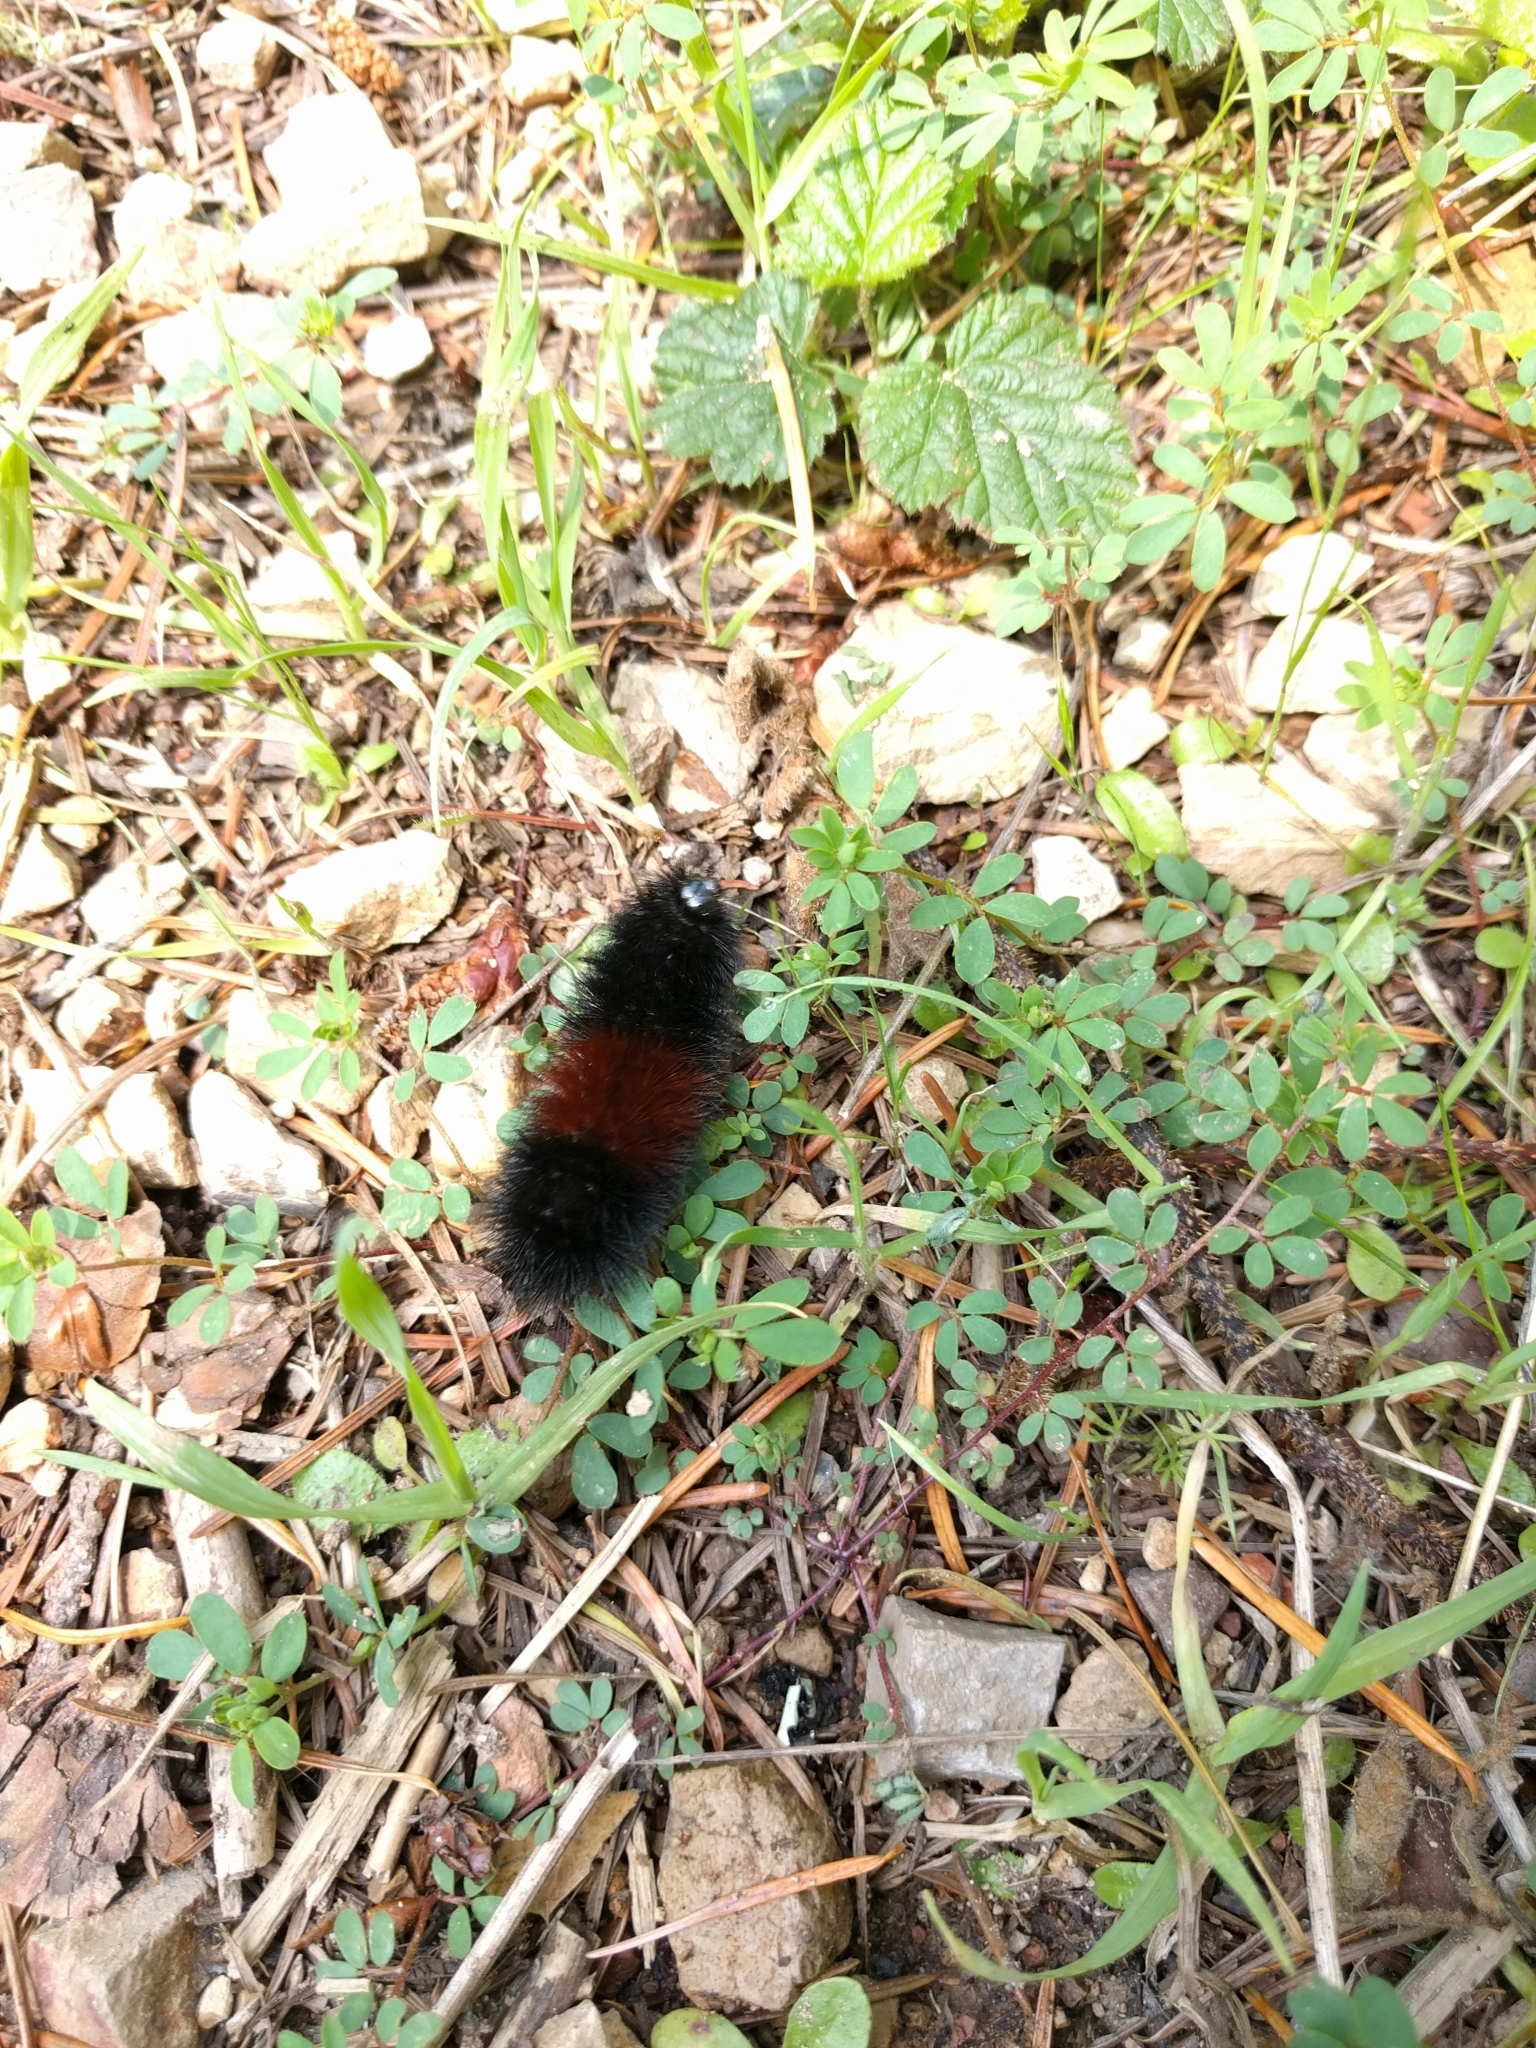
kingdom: Animalia
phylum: Arthropoda
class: Insecta
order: Lepidoptera
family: Erebidae
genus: Pyrrharctia
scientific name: Pyrrharctia isabella
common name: Isabella tiger moth
